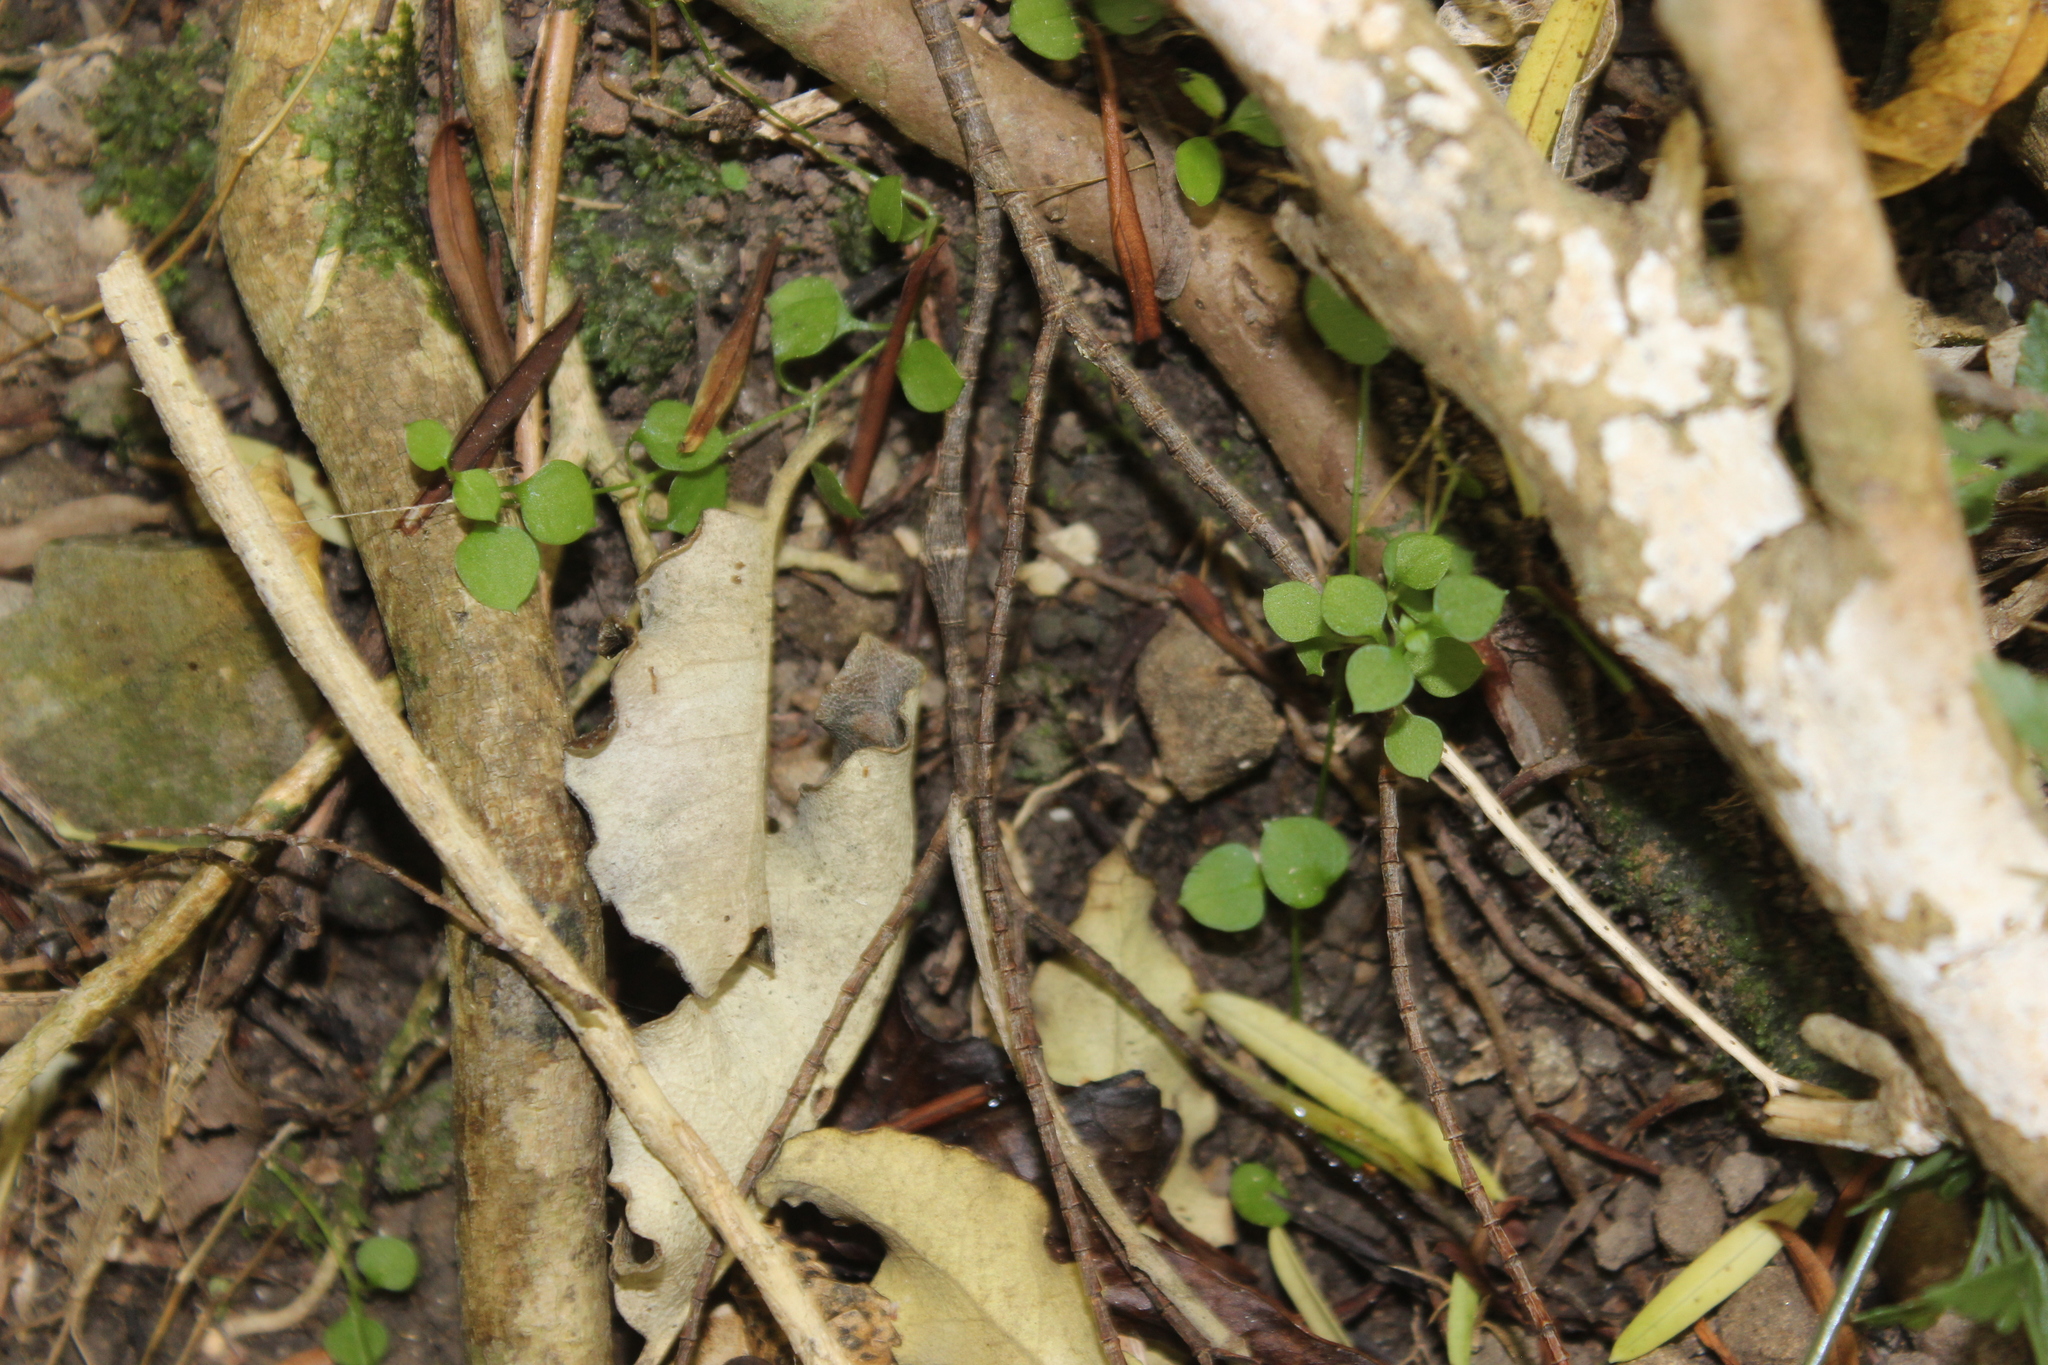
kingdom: Plantae
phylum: Tracheophyta
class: Magnoliopsida
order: Caryophyllales
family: Caryophyllaceae
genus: Stellaria
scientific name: Stellaria parviflora
